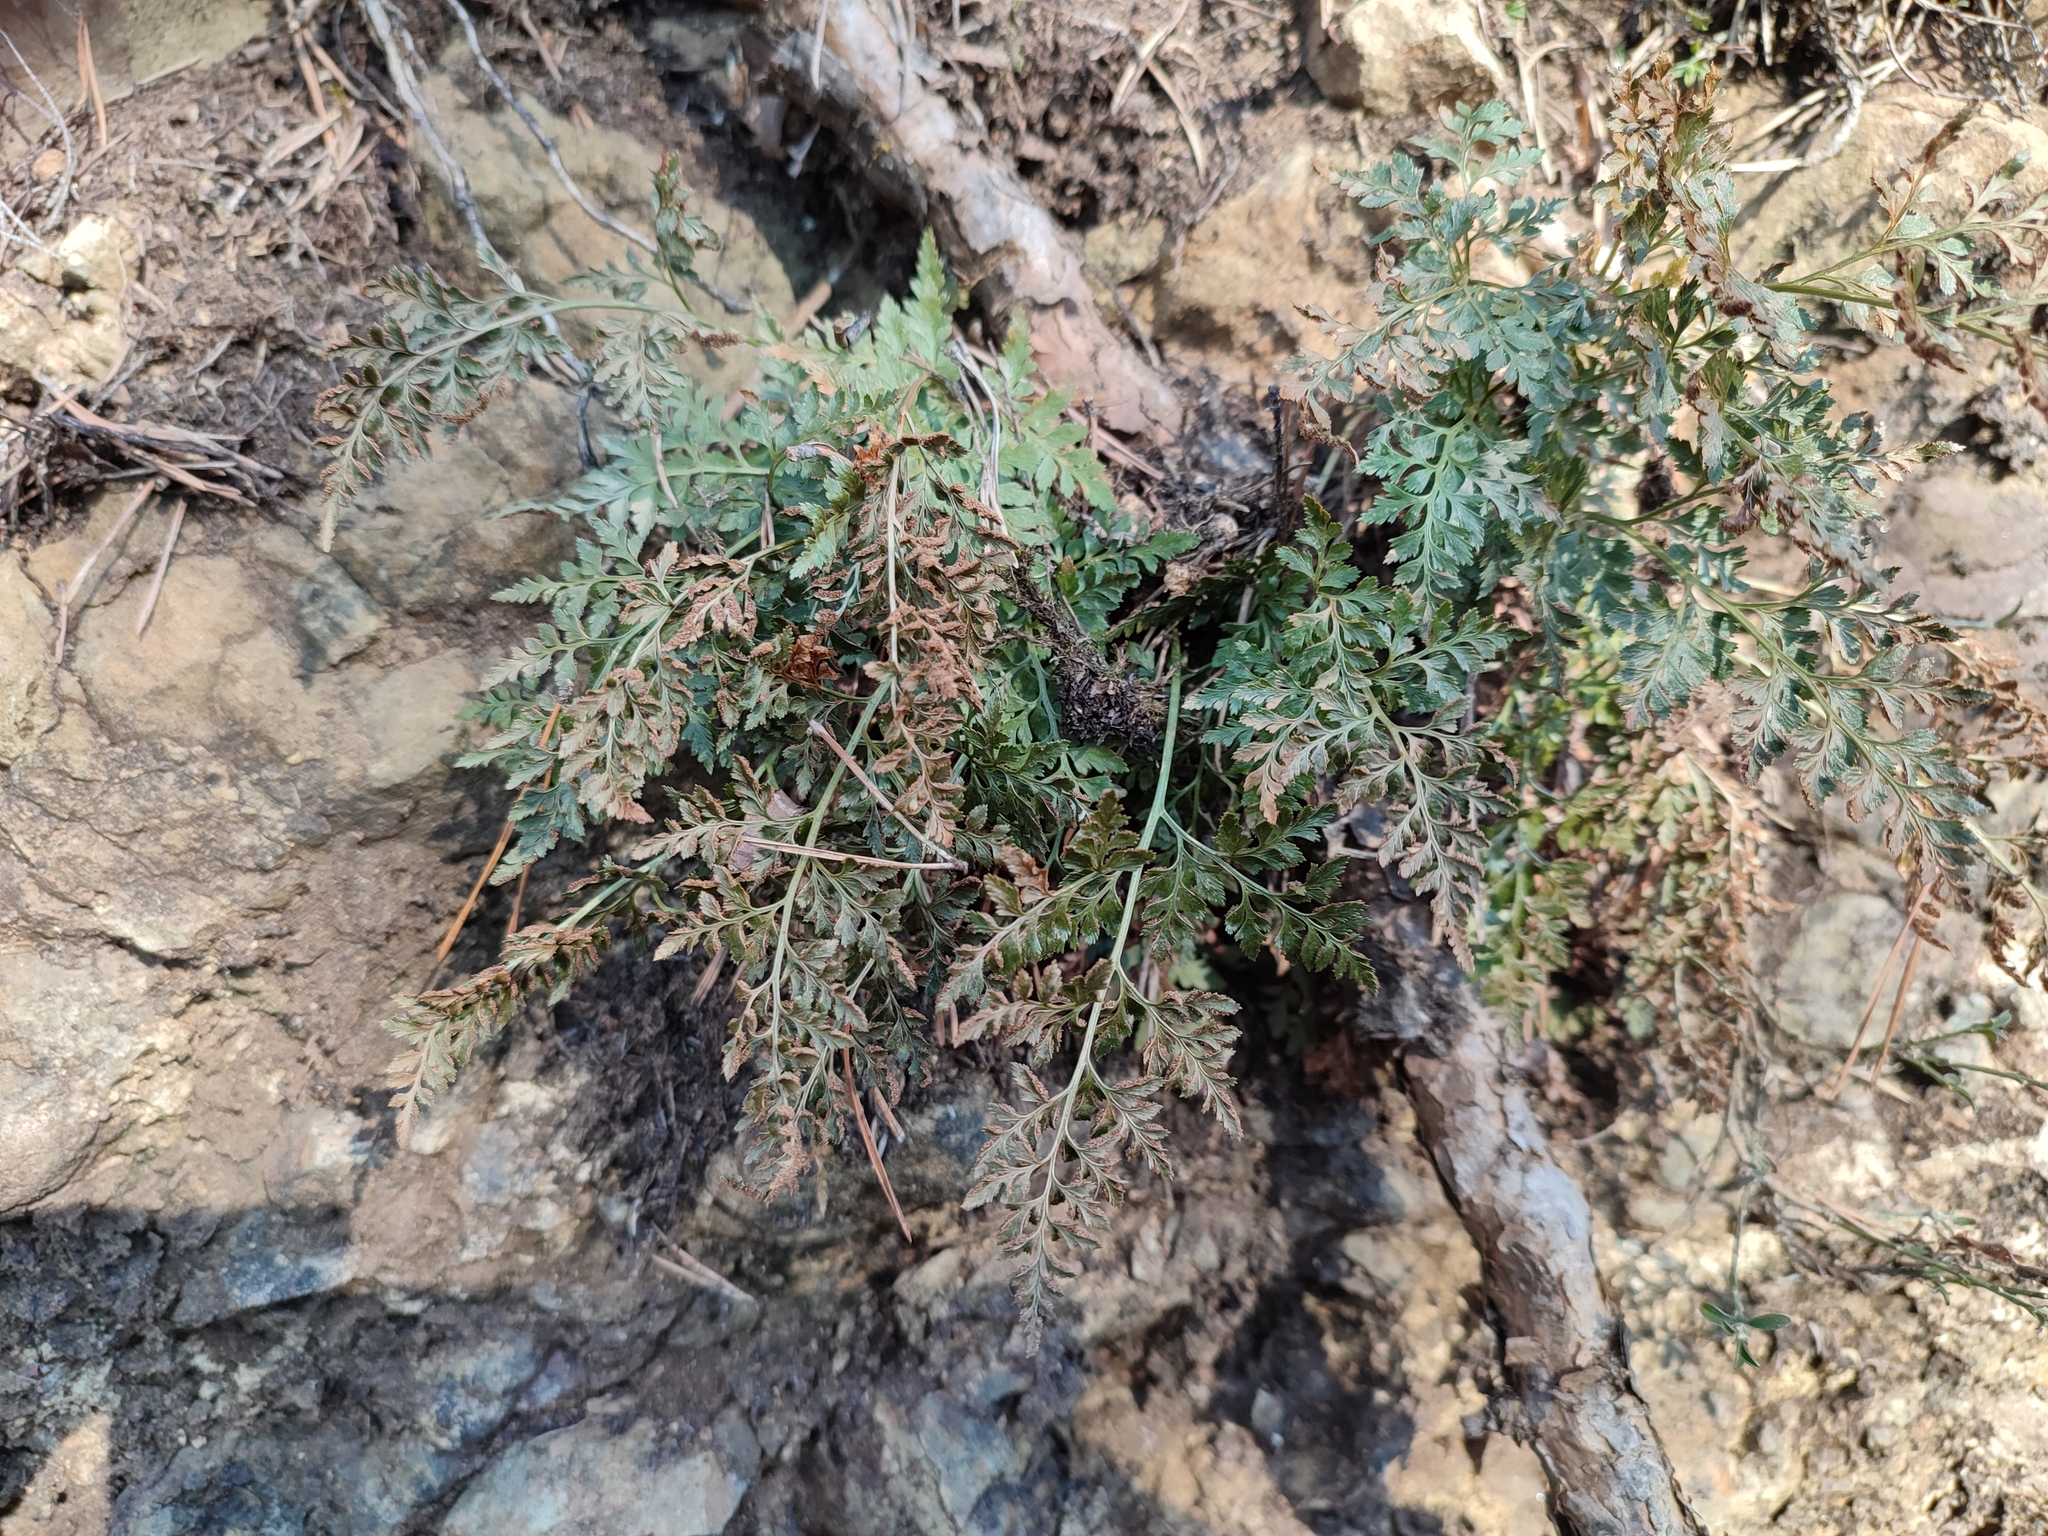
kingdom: Plantae
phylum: Tracheophyta
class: Polypodiopsida
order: Polypodiales
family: Aspleniaceae
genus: Asplenium
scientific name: Asplenium cuneifolium
